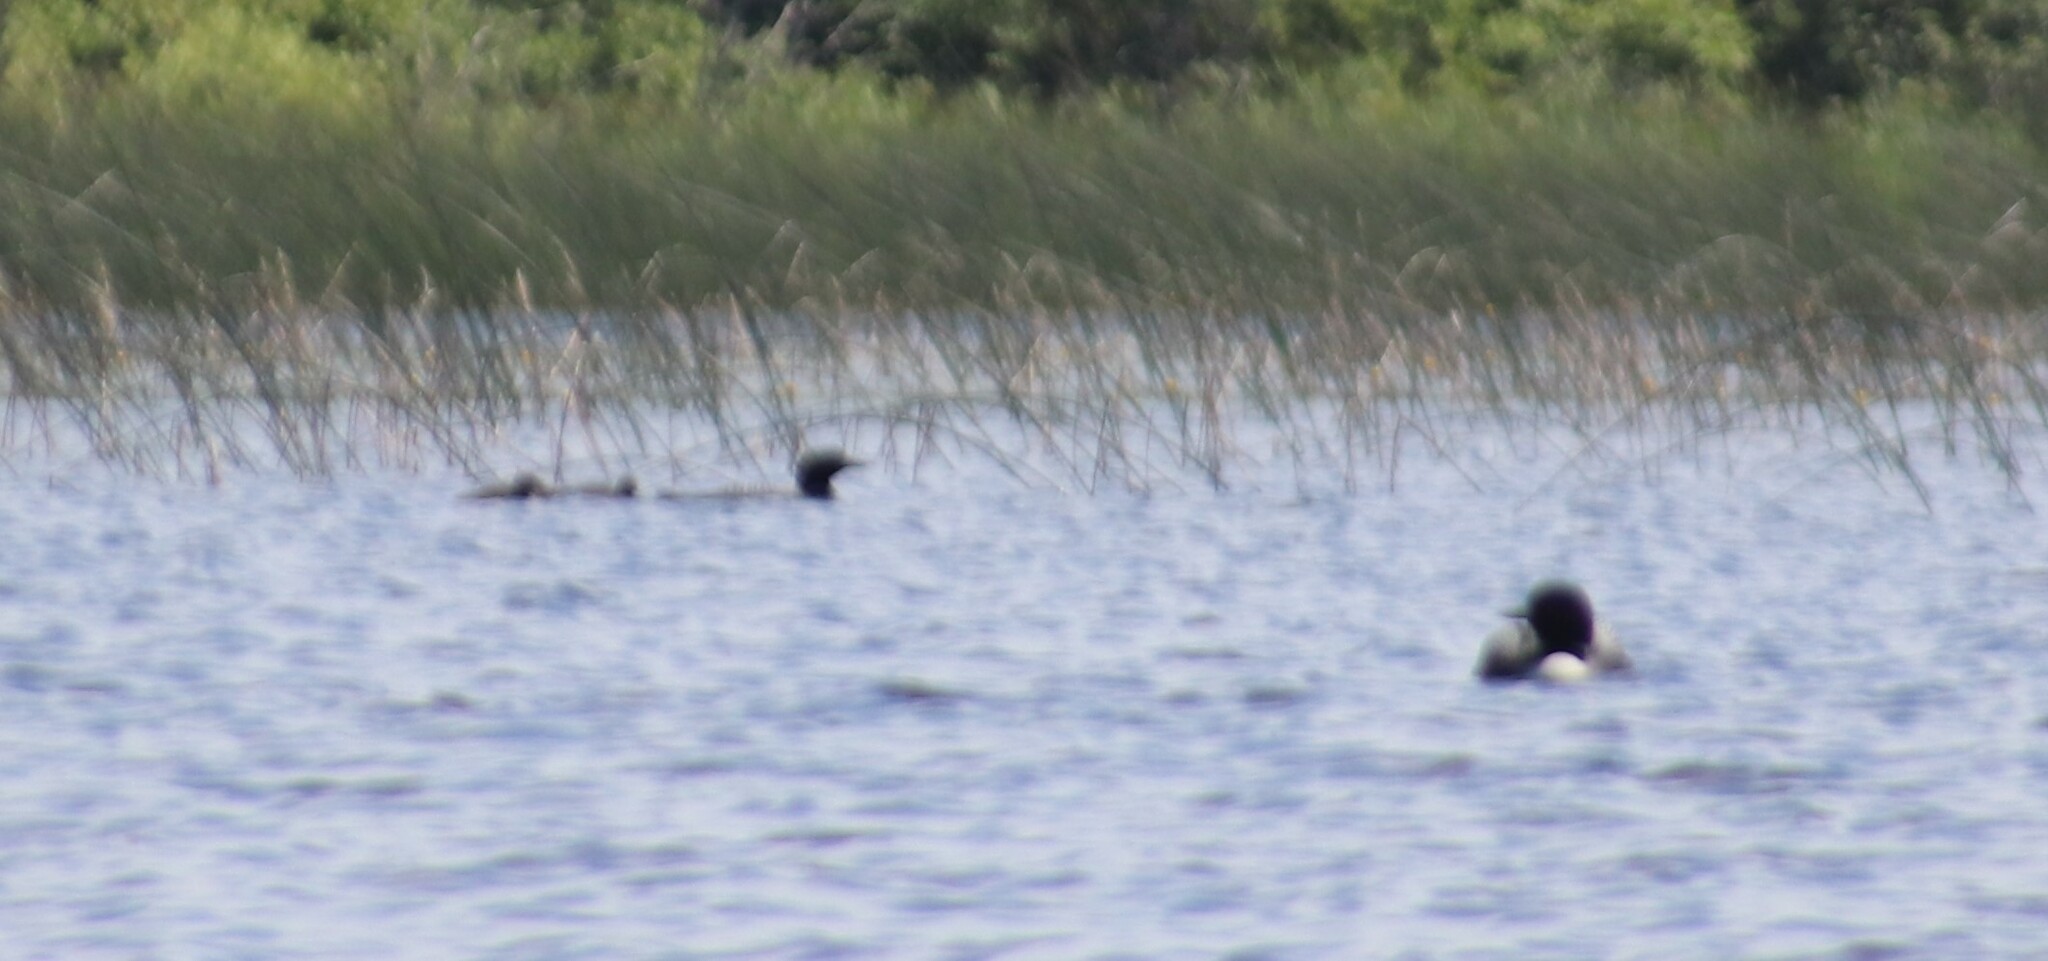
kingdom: Animalia
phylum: Chordata
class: Aves
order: Gaviiformes
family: Gaviidae
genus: Gavia
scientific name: Gavia immer
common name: Common loon
